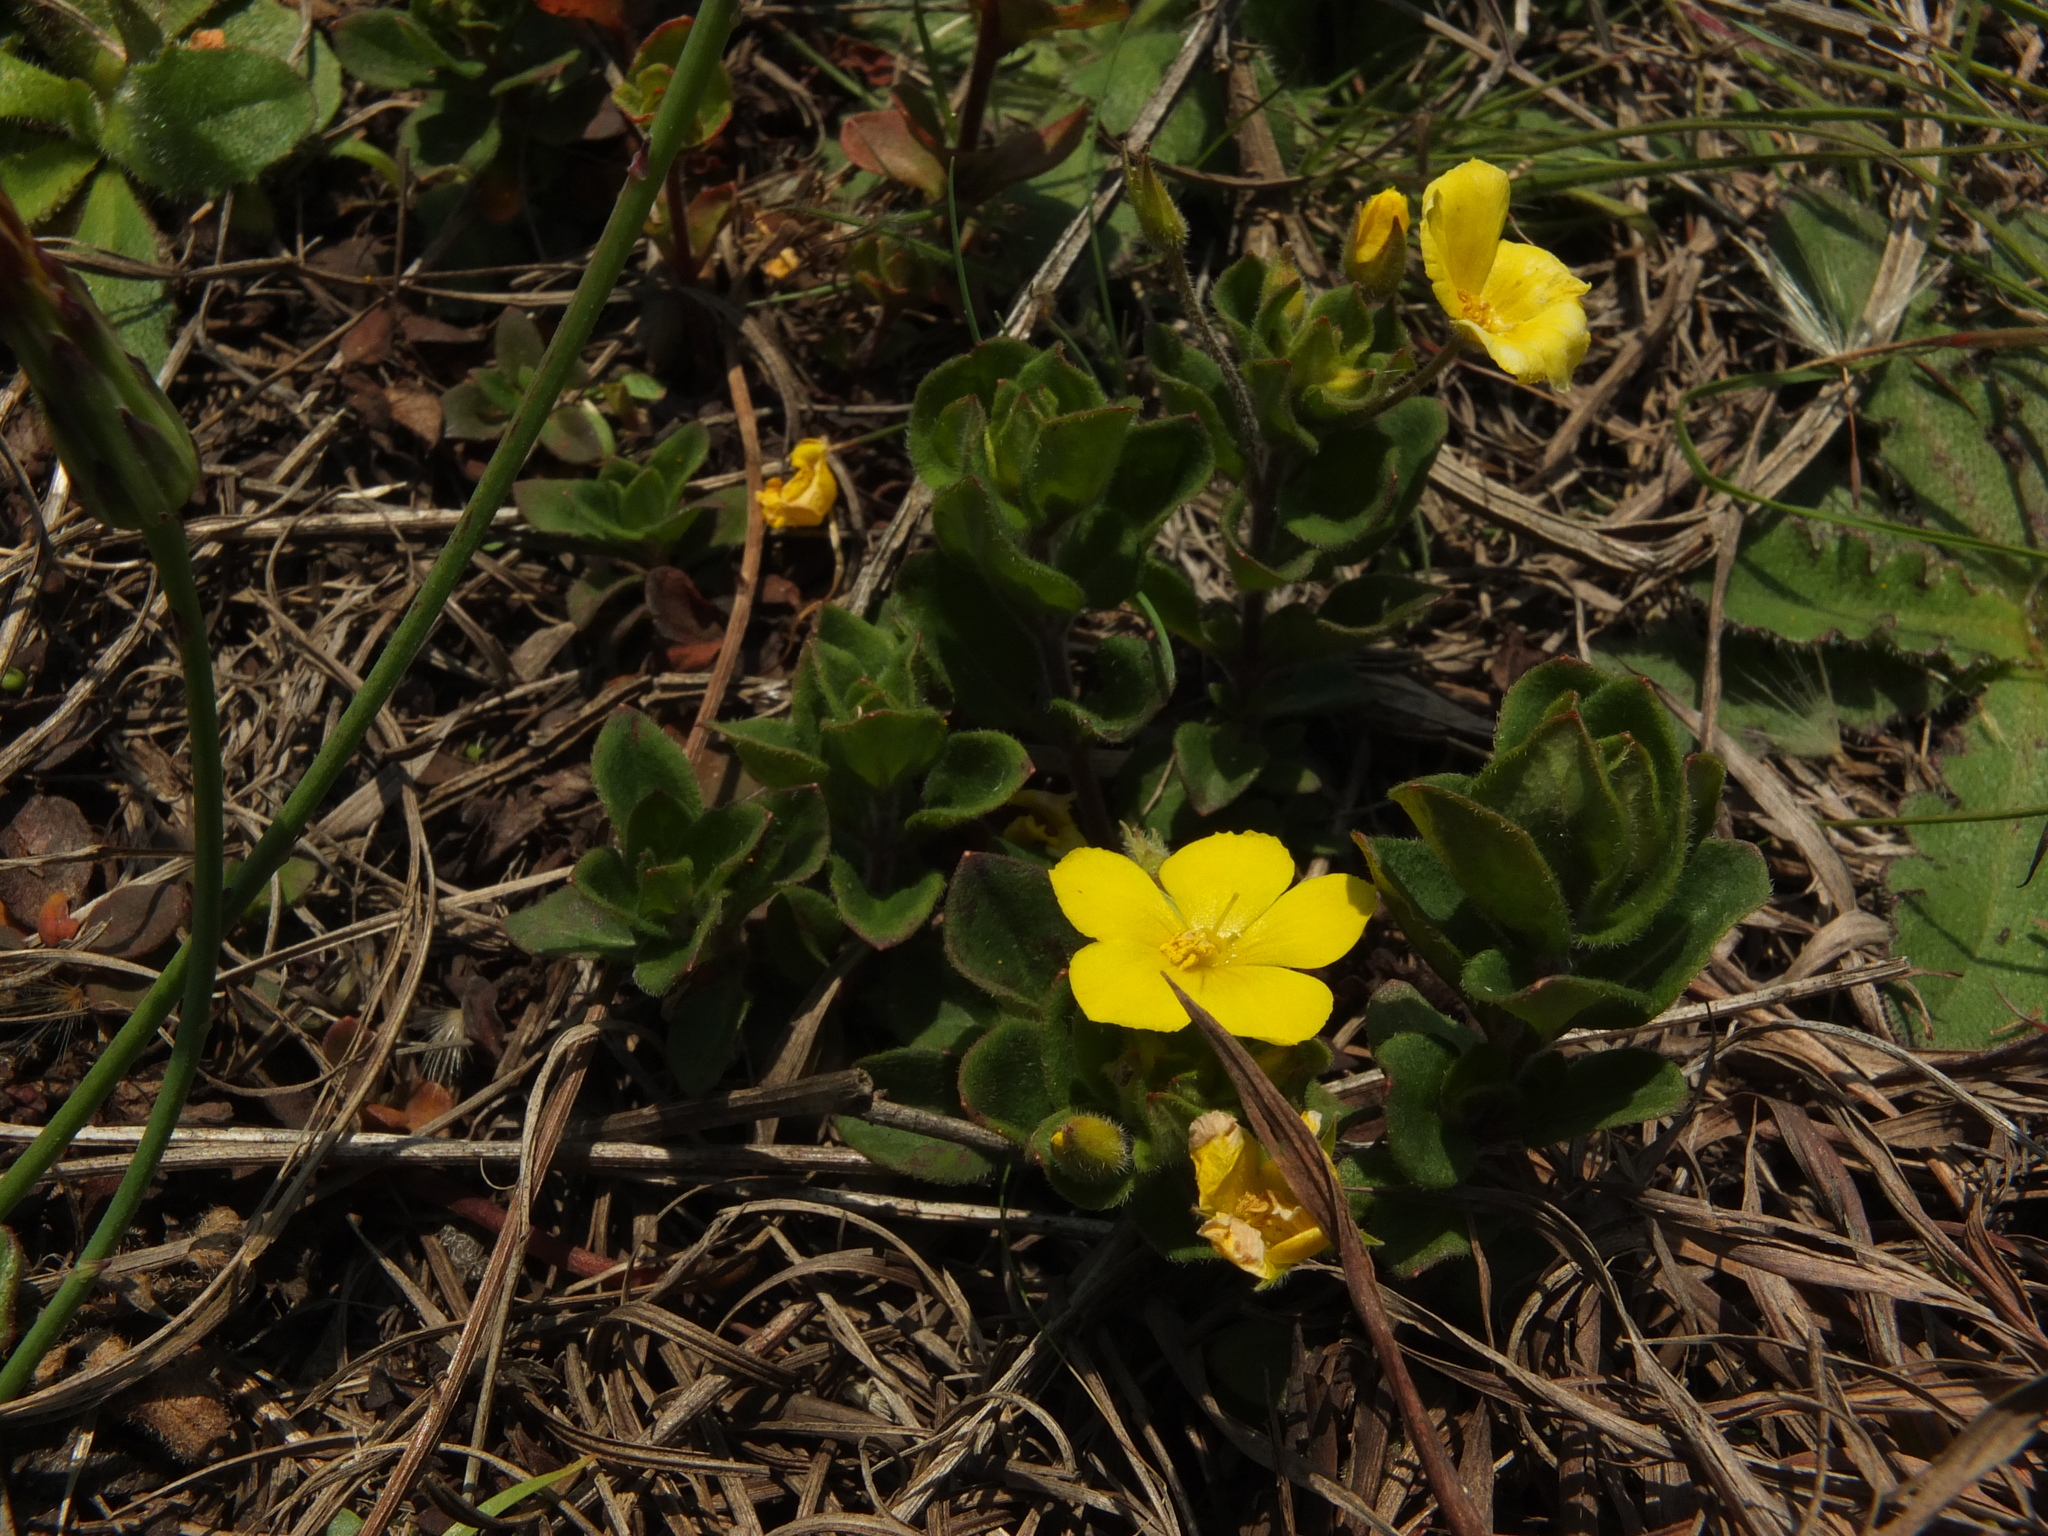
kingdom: Plantae
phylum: Tracheophyta
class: Magnoliopsida
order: Ericales
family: Primulaceae
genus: Lysimachia
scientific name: Lysimachia procumbens
